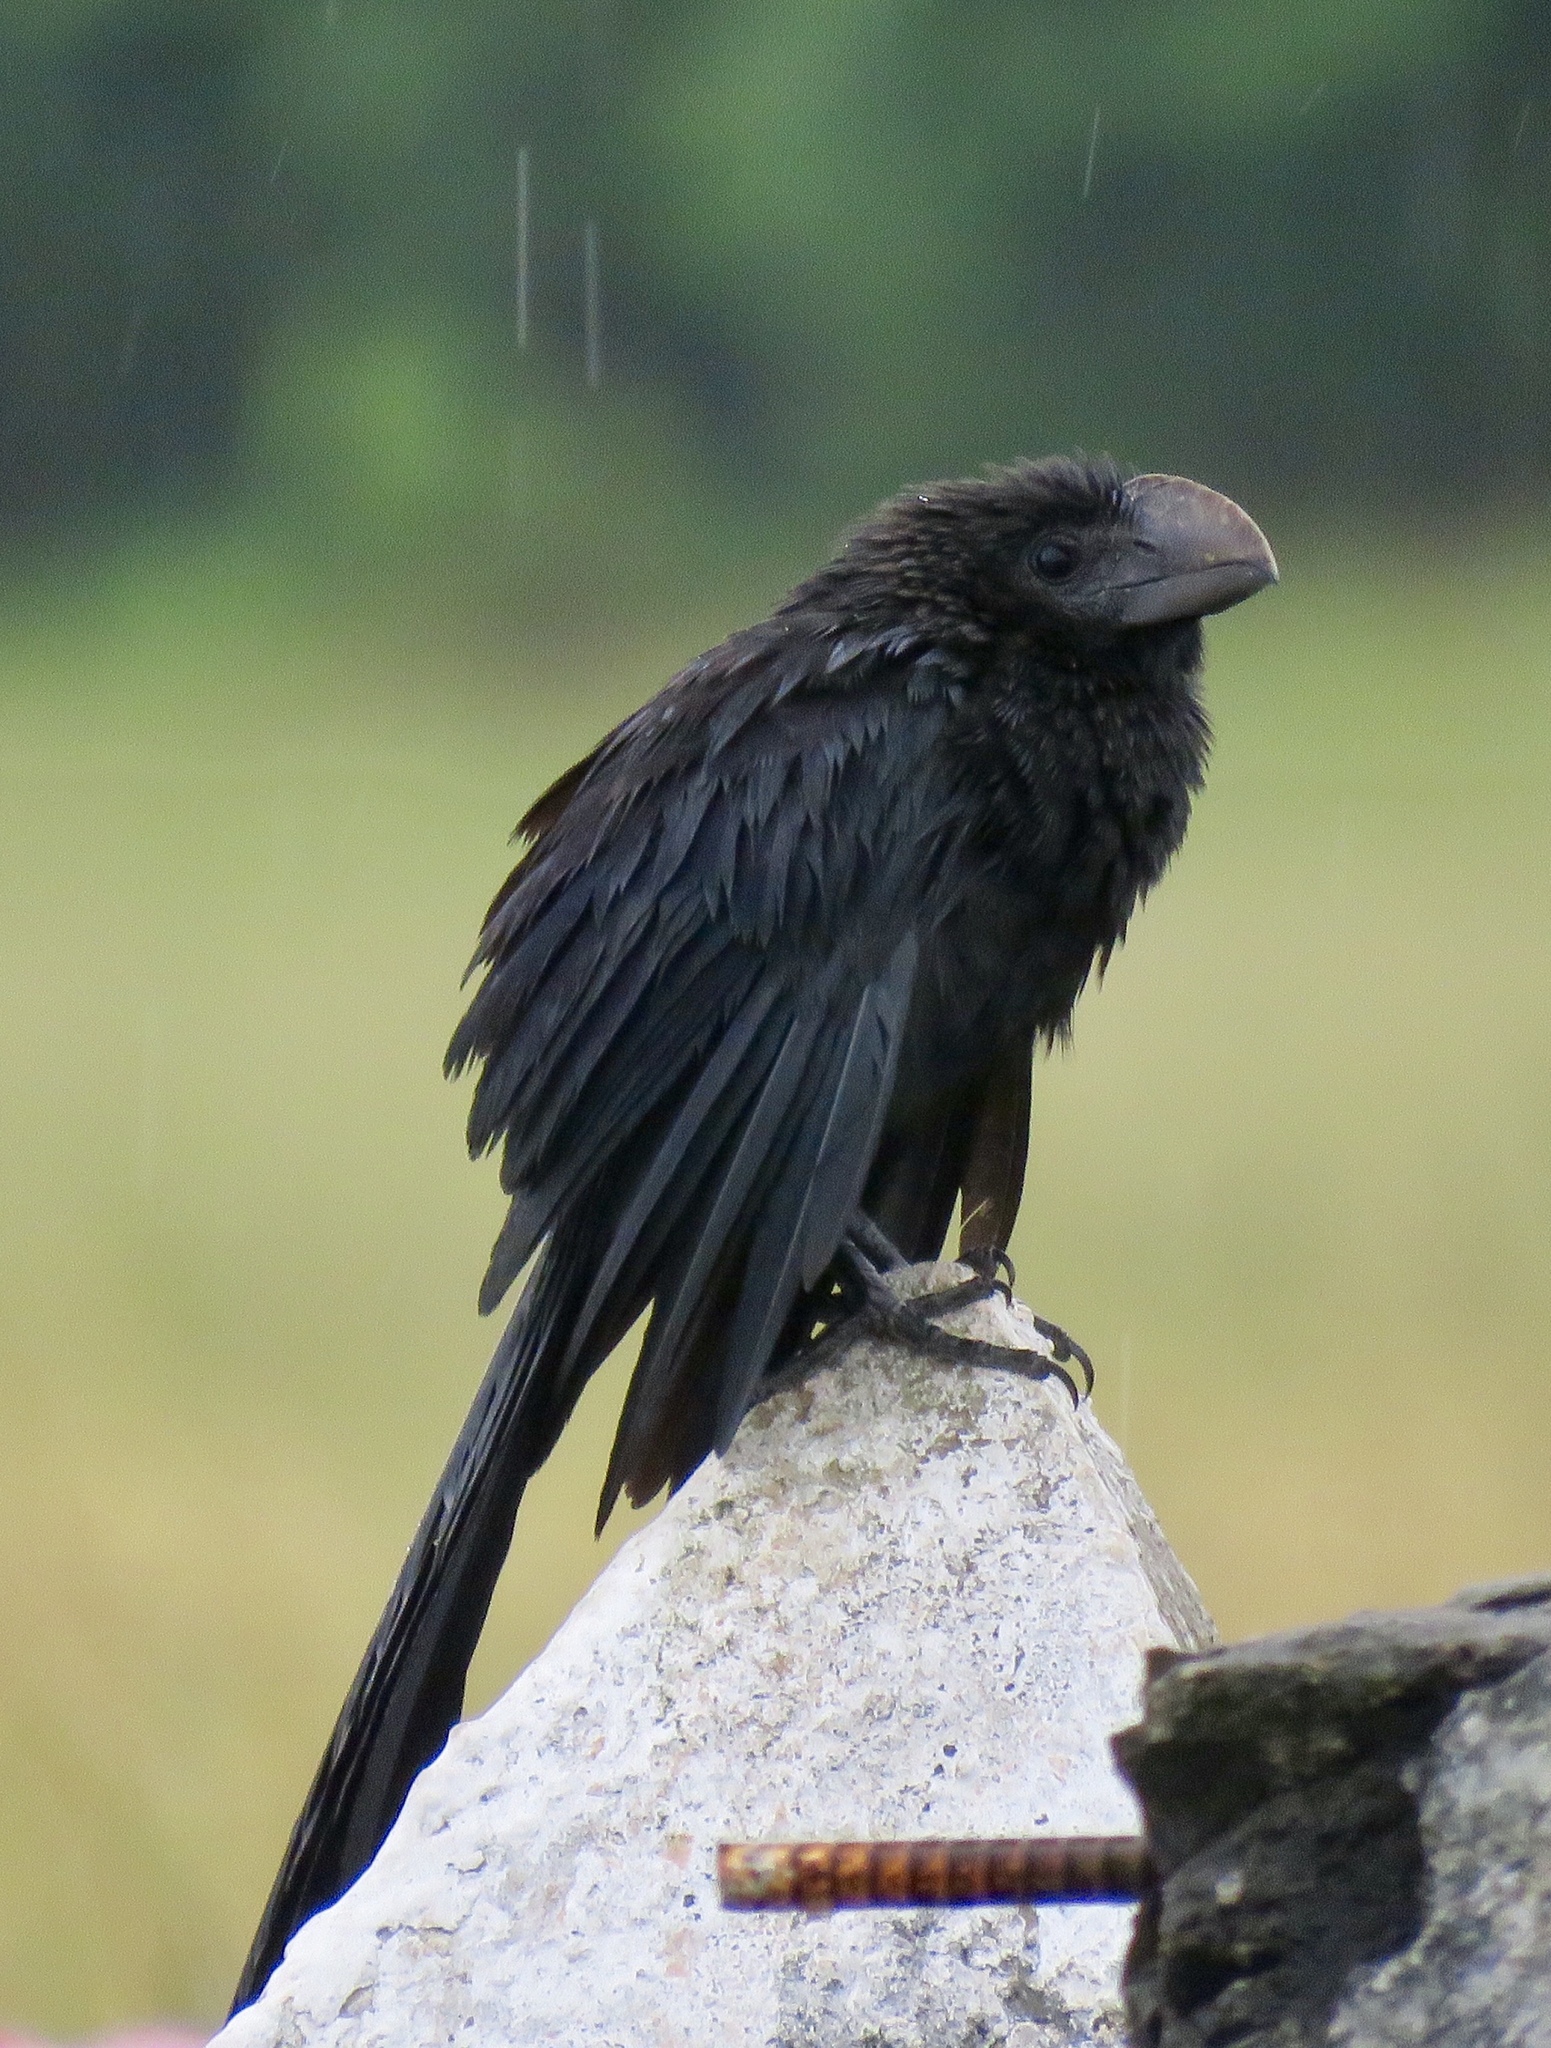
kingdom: Animalia
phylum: Chordata
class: Aves
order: Cuculiformes
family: Cuculidae
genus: Crotophaga
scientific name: Crotophaga ani
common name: Smooth-billed ani
